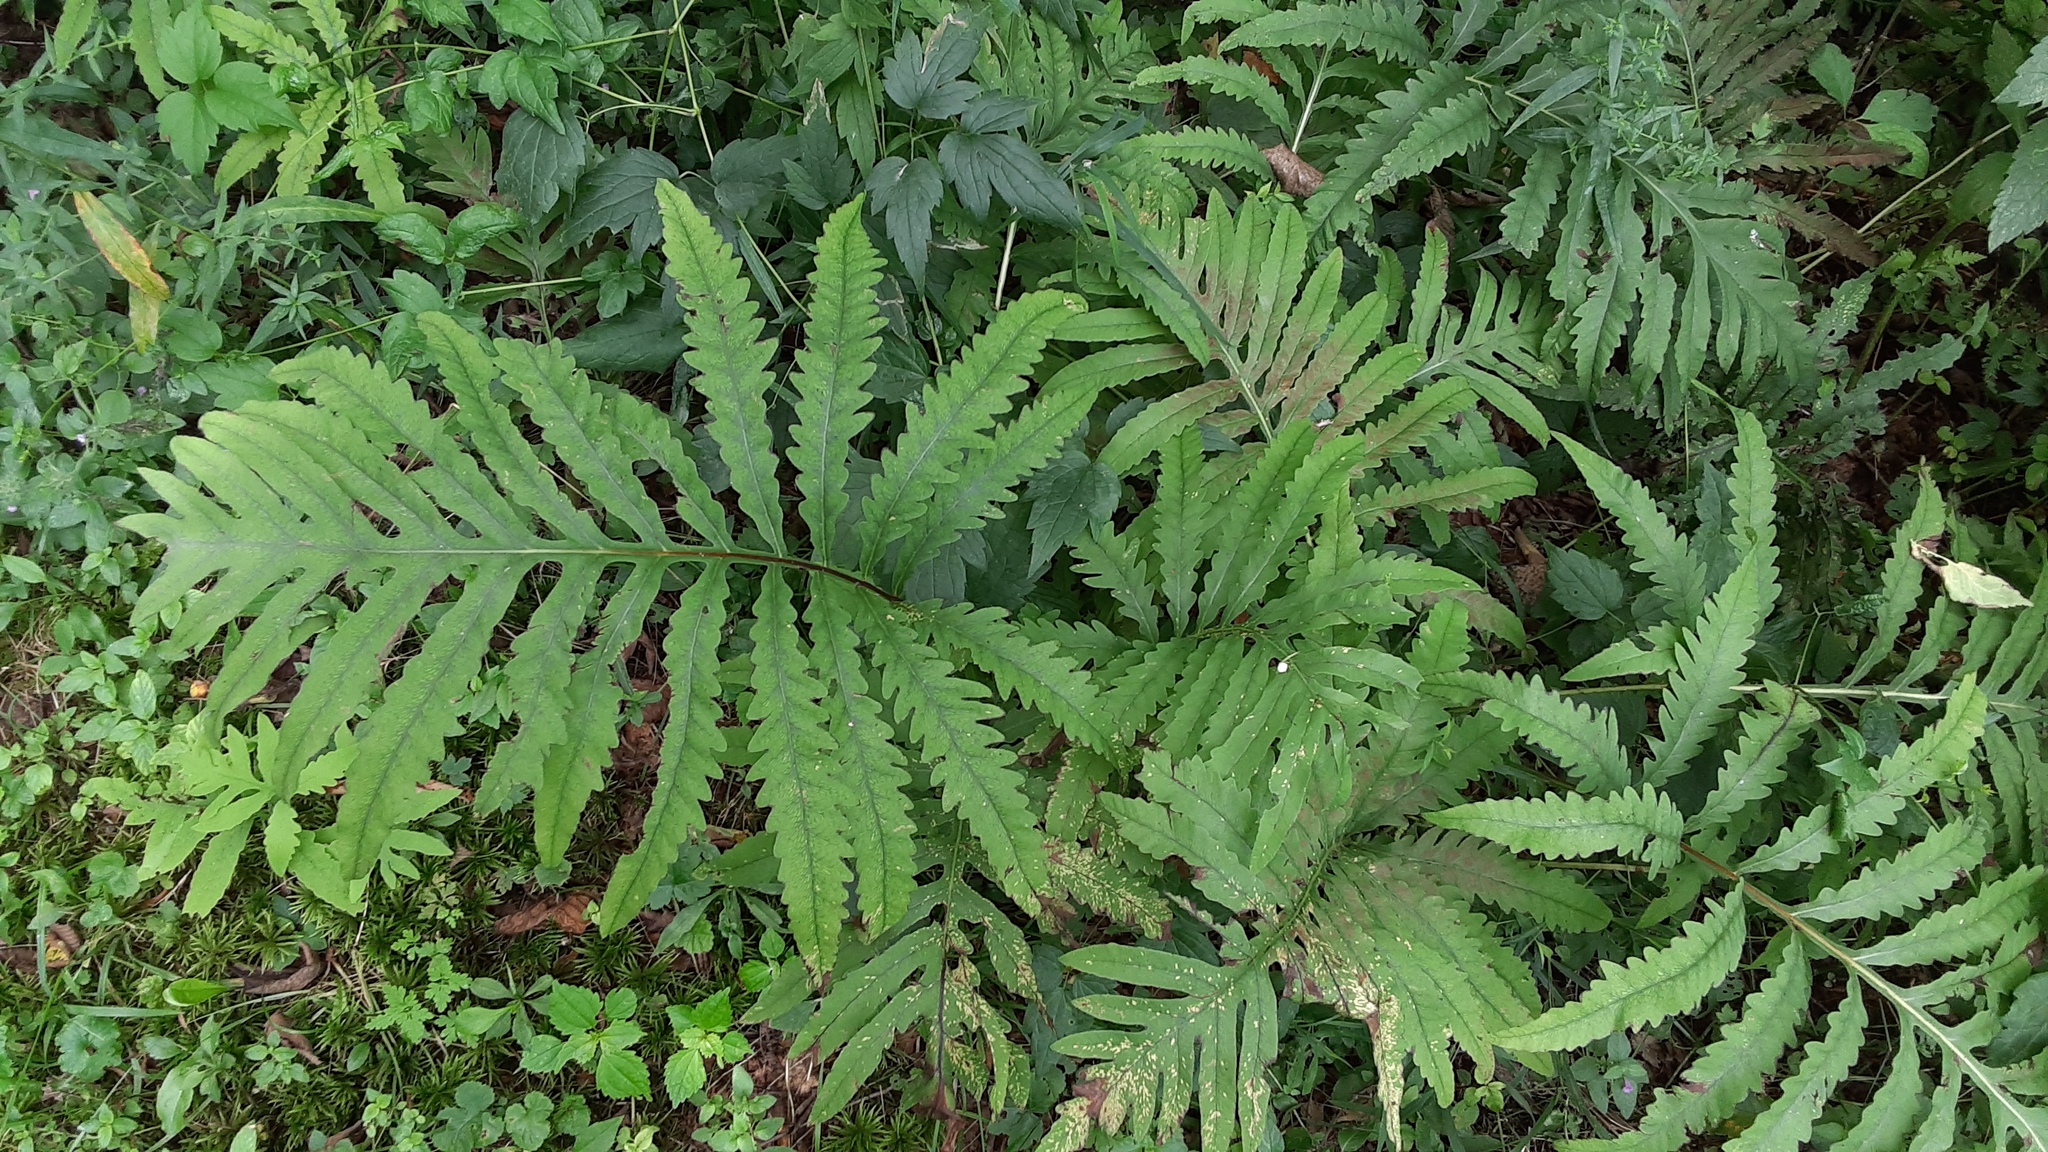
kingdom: Plantae
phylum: Tracheophyta
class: Polypodiopsida
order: Polypodiales
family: Onocleaceae
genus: Onoclea
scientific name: Onoclea sensibilis
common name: Sensitive fern
